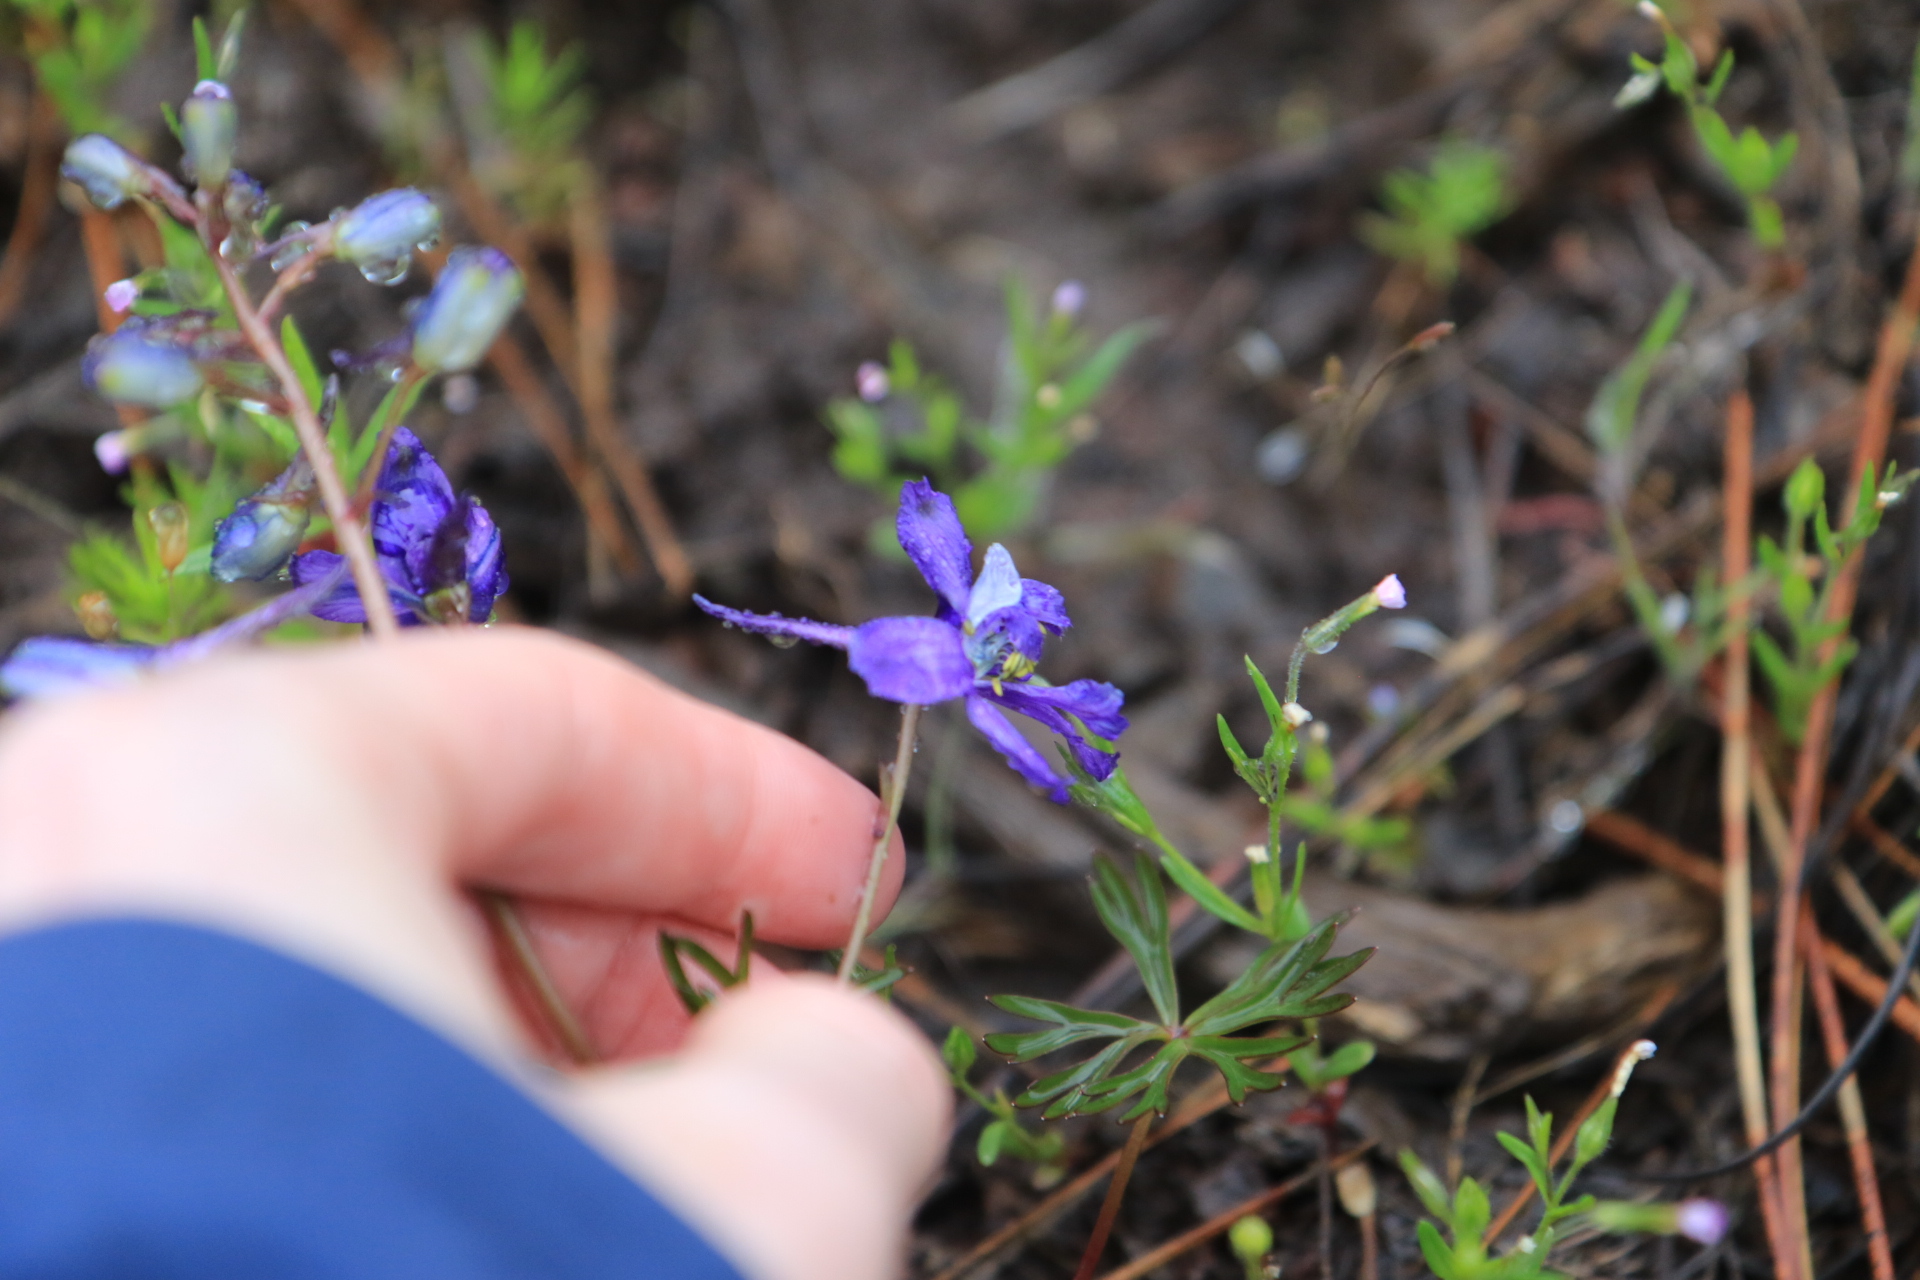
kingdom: Plantae
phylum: Tracheophyta
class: Magnoliopsida
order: Ranunculales
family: Ranunculaceae
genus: Delphinium
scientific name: Delphinium nuttallianum
